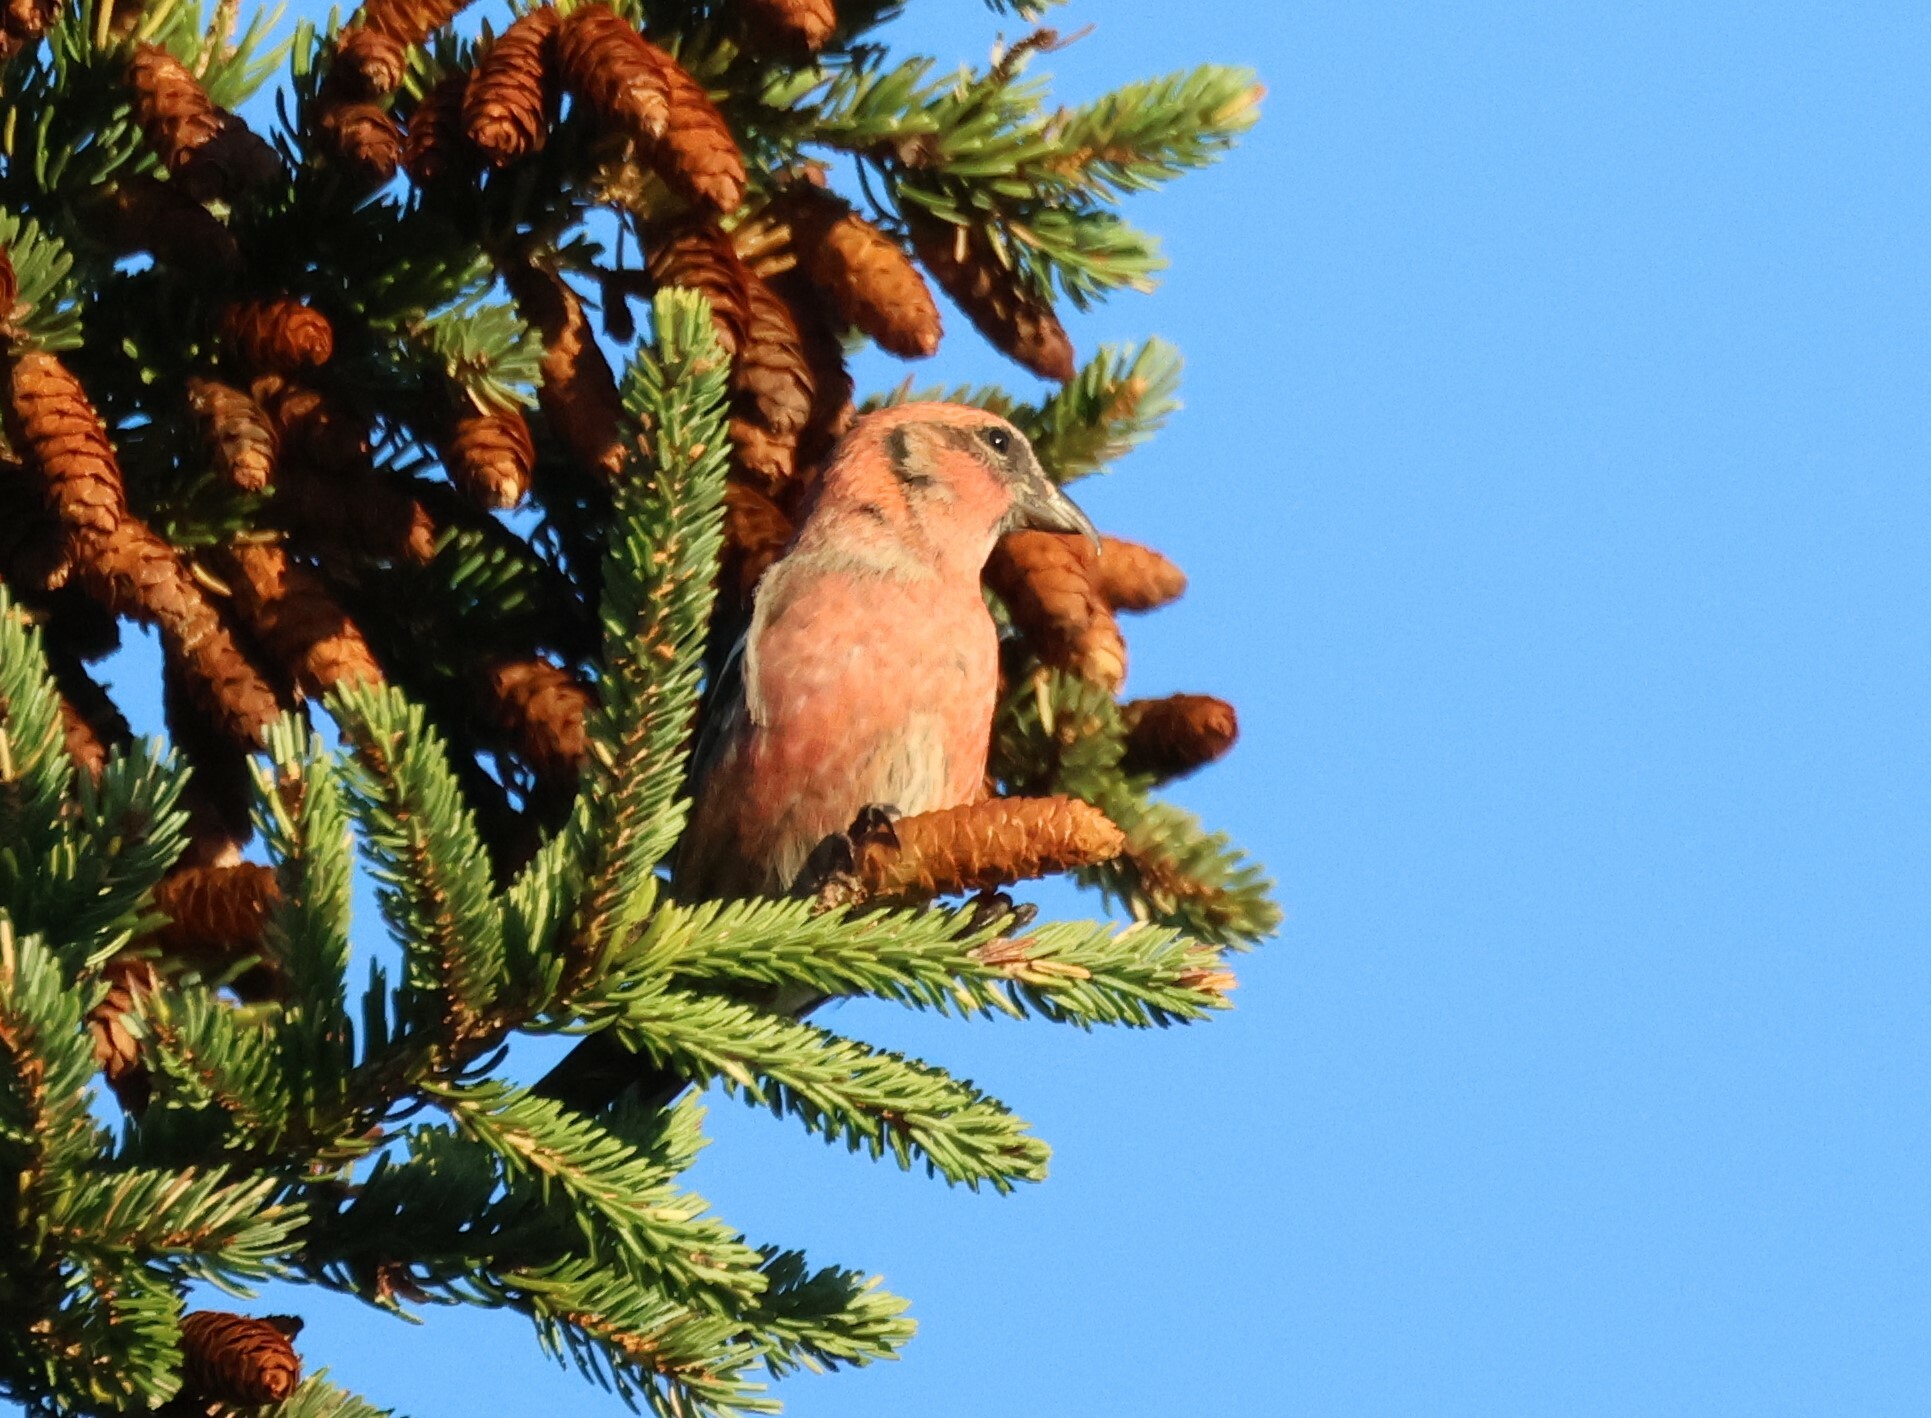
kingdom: Animalia
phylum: Chordata
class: Aves
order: Passeriformes
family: Fringillidae
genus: Loxia
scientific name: Loxia leucoptera
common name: Two-barred crossbill
